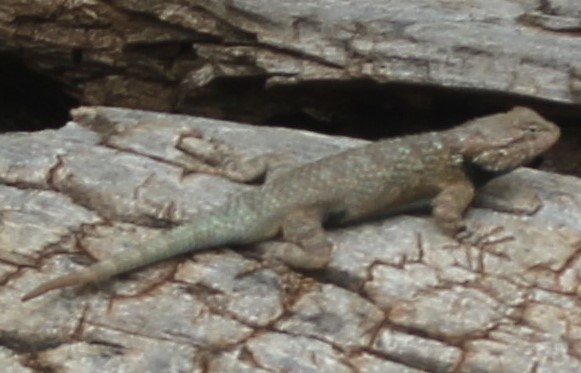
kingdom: Animalia
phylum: Chordata
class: Squamata
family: Phrynosomatidae
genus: Sceloporus
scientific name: Sceloporus magister
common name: Desert spiny lizard
